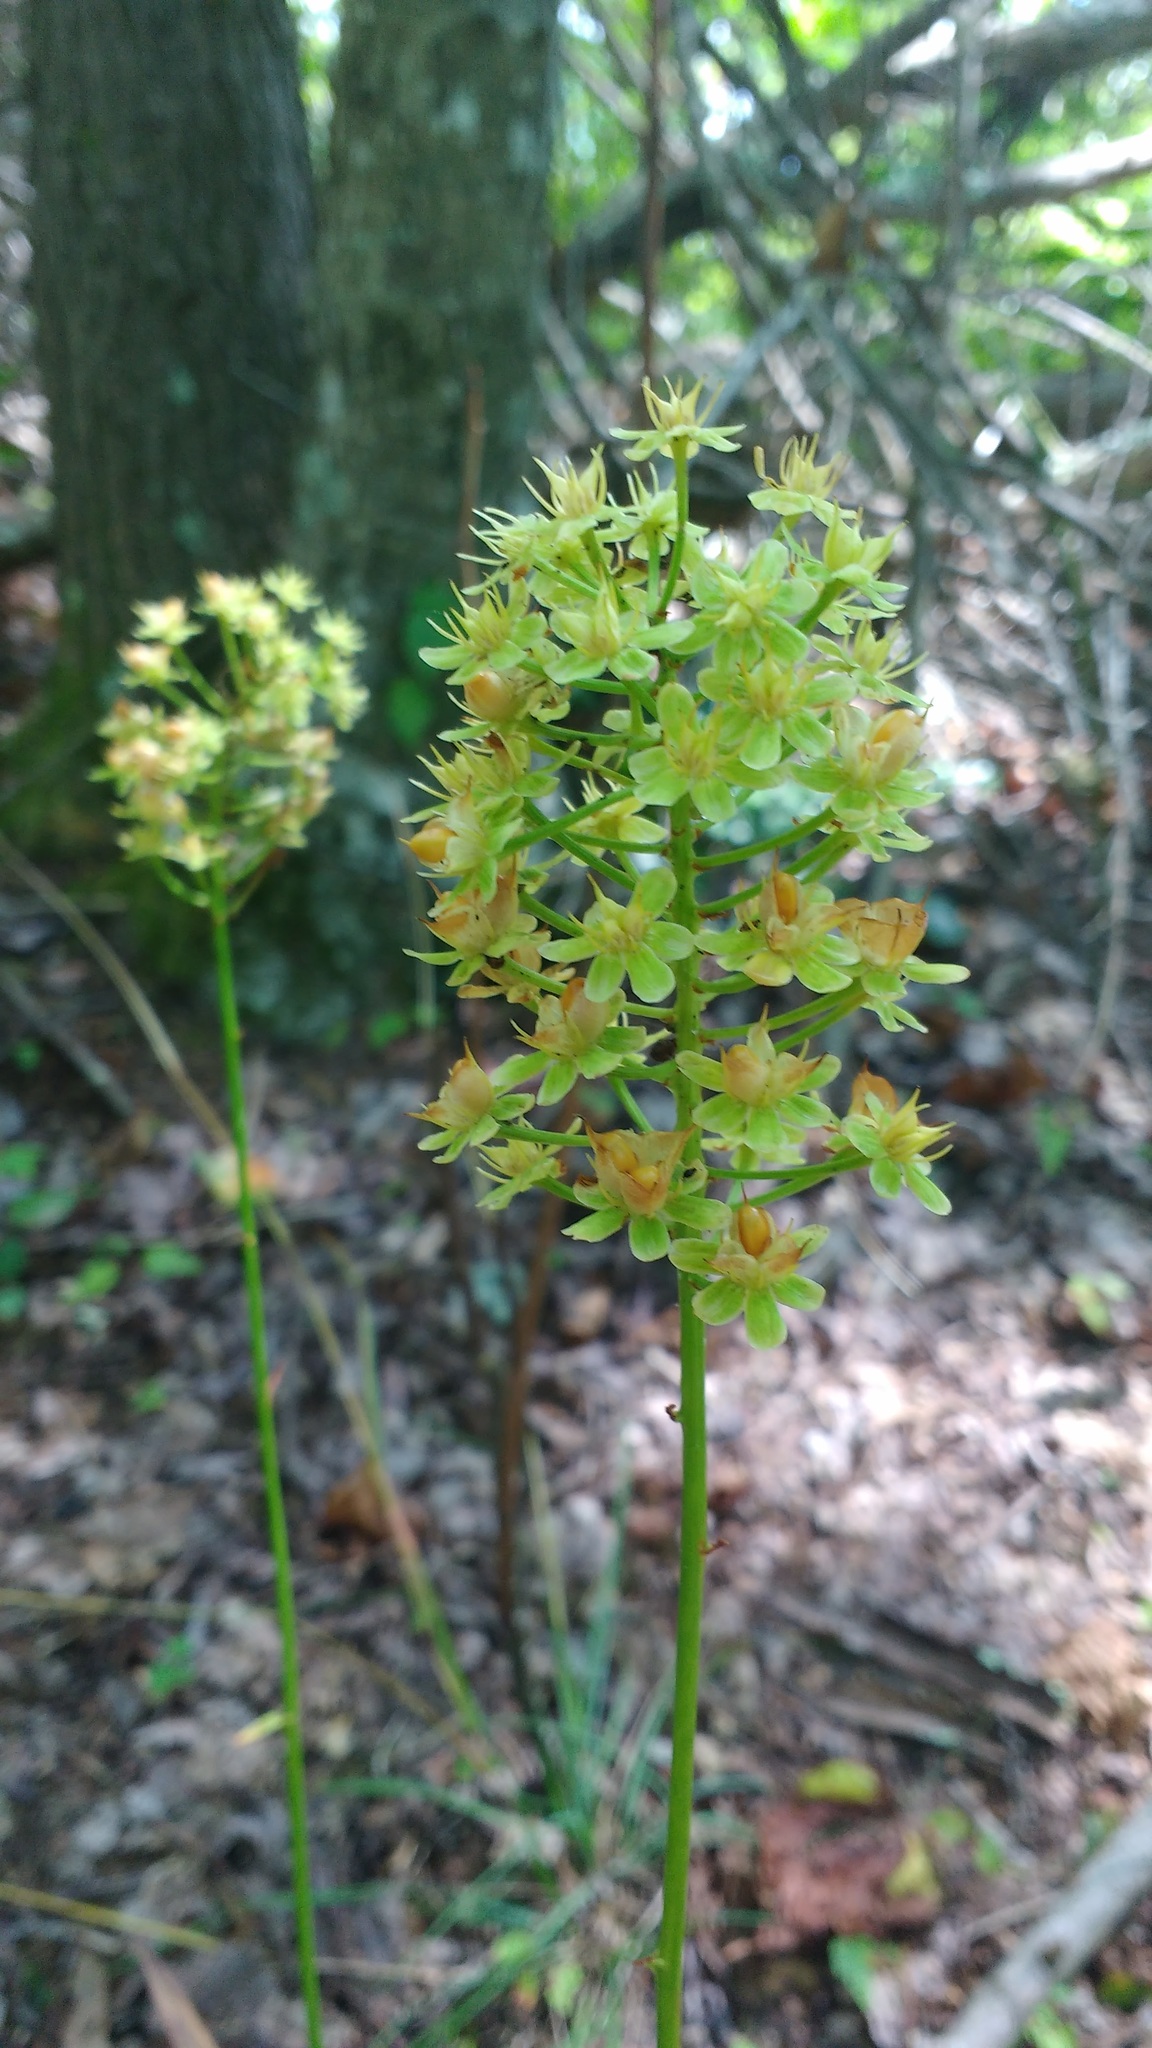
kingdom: Plantae
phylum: Tracheophyta
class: Liliopsida
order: Liliales
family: Melanthiaceae
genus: Amianthium
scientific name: Amianthium muscitoxicum
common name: Fly-poison
